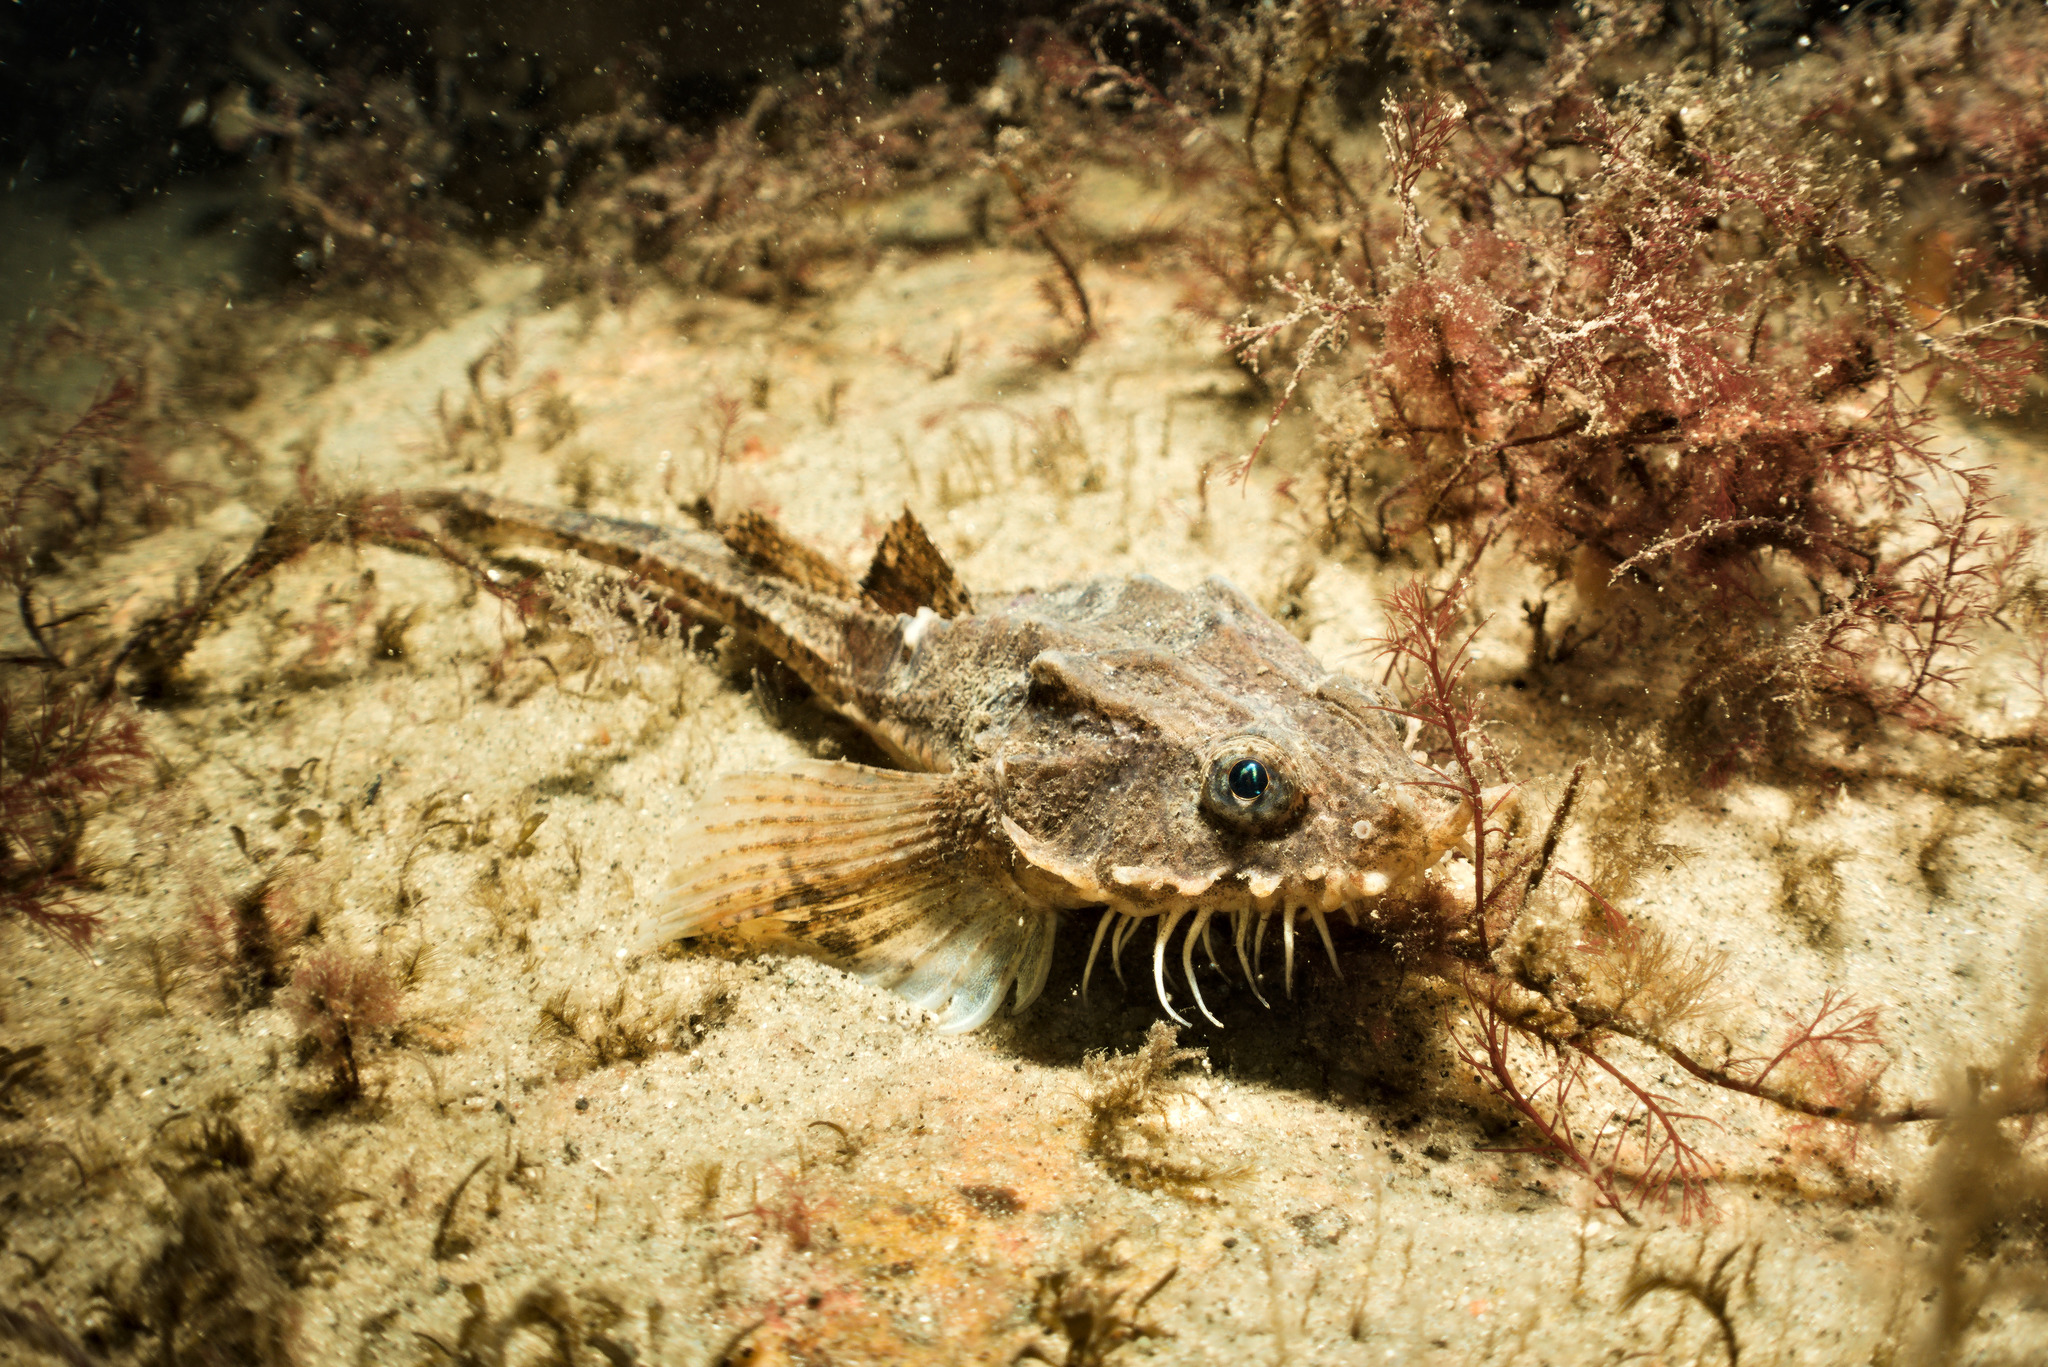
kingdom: Animalia
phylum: Chordata
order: Scorpaeniformes
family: Agonidae
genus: Agonus
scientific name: Agonus cataphractus
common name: Pogge
